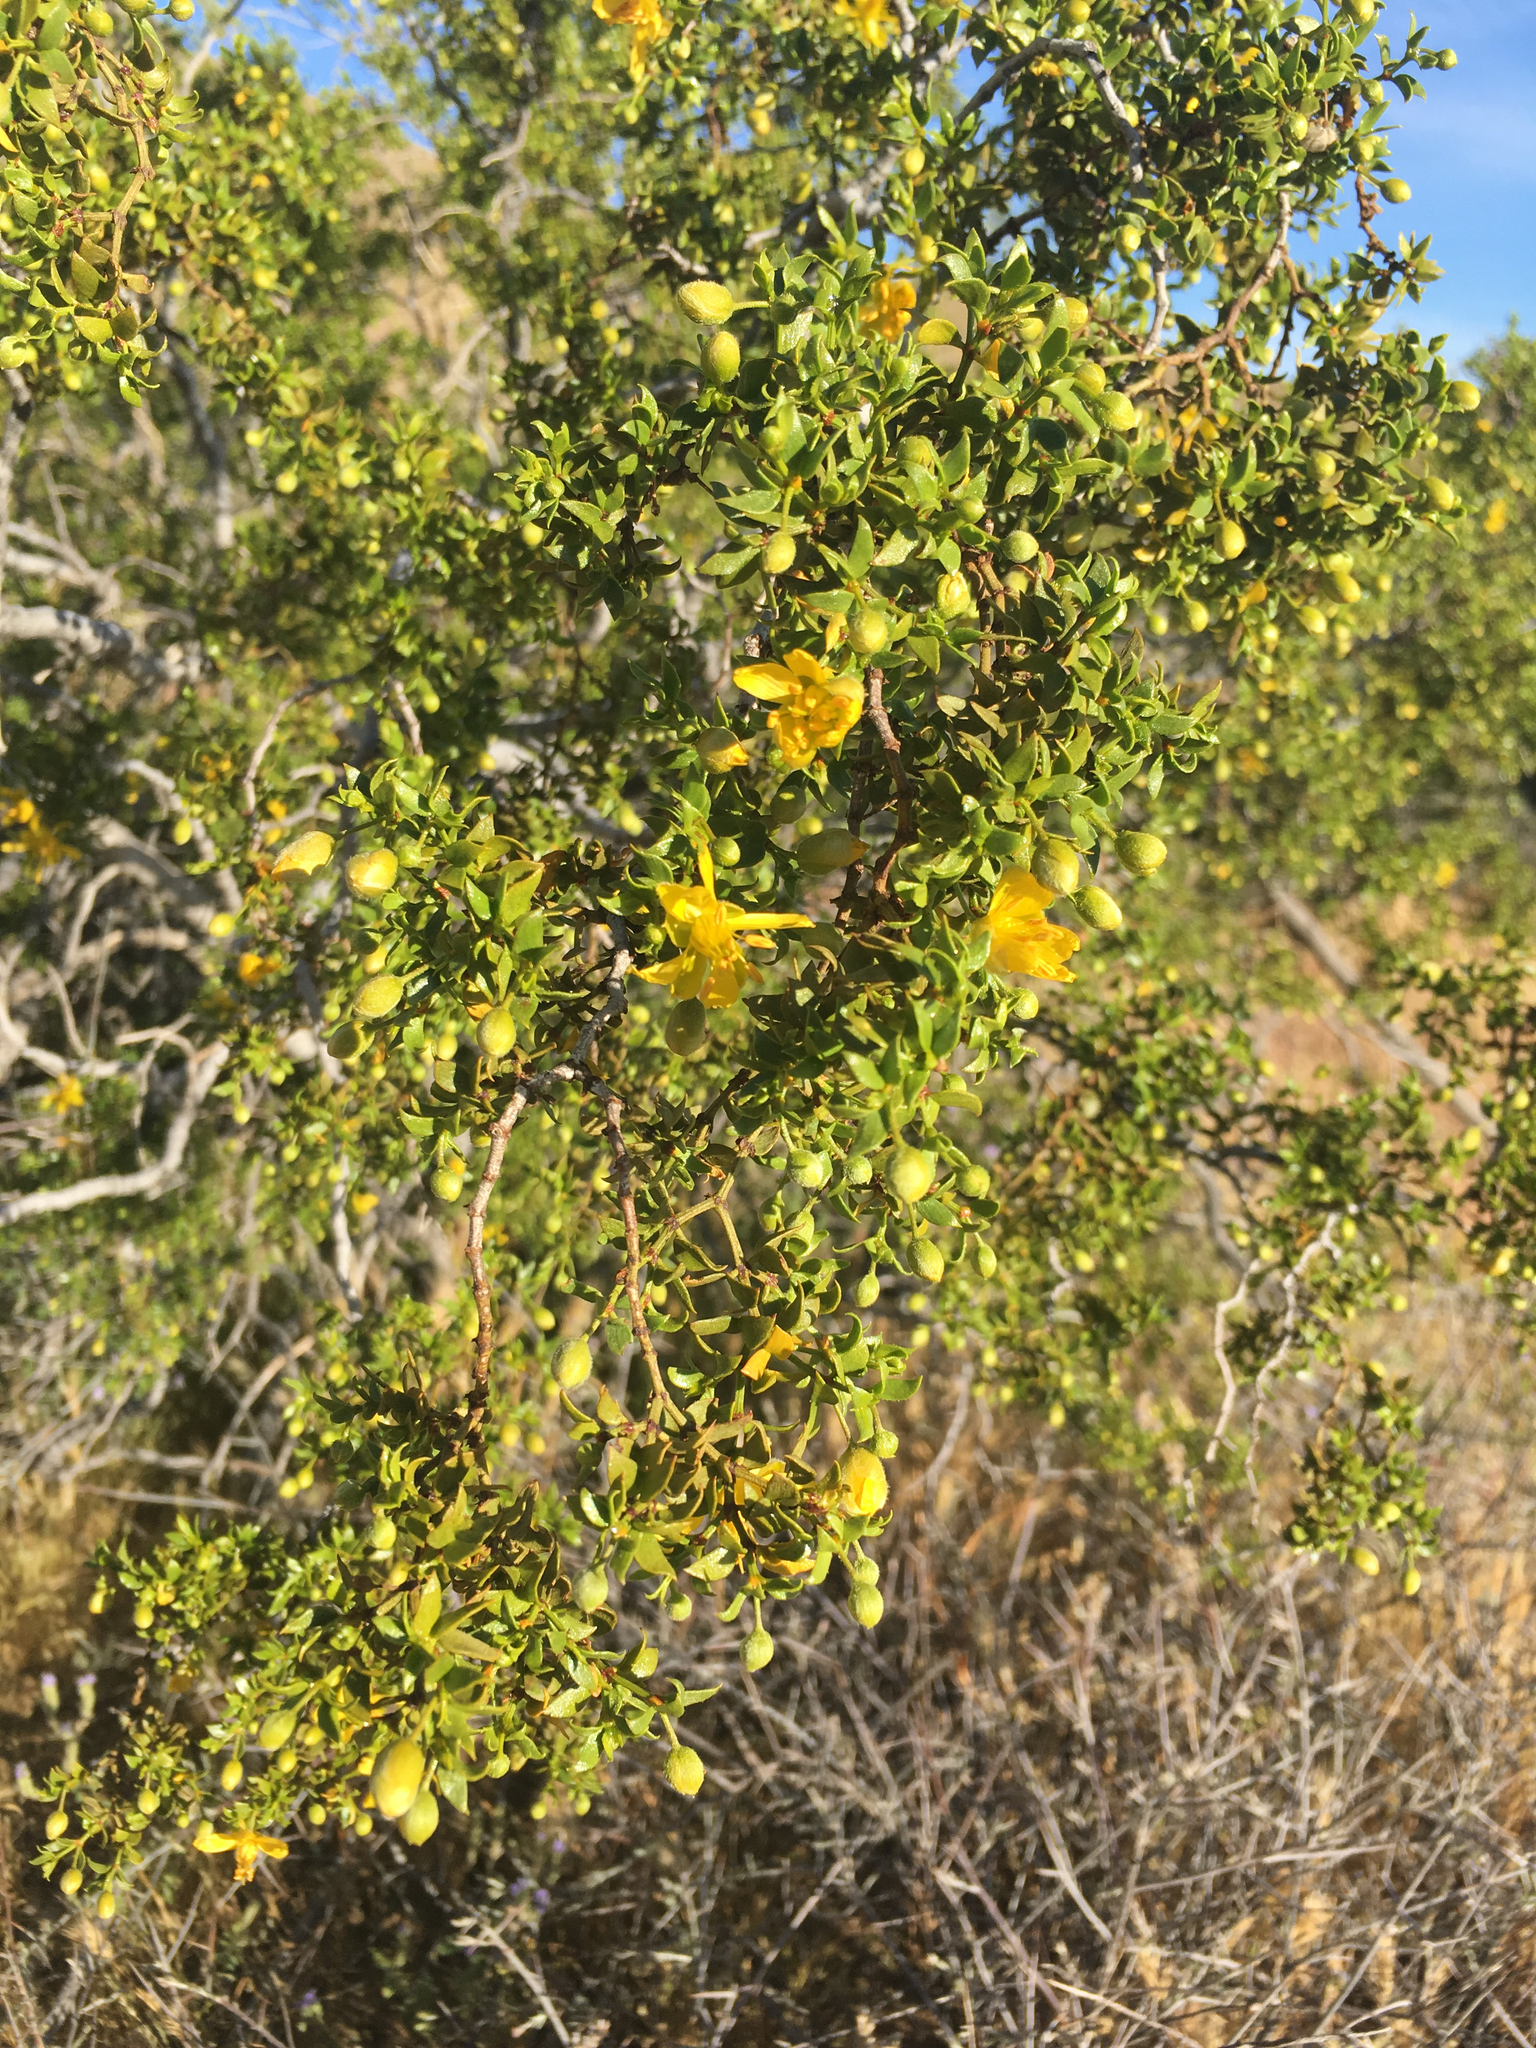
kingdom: Plantae
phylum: Tracheophyta
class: Magnoliopsida
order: Zygophyllales
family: Zygophyllaceae
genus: Larrea
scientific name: Larrea tridentata
